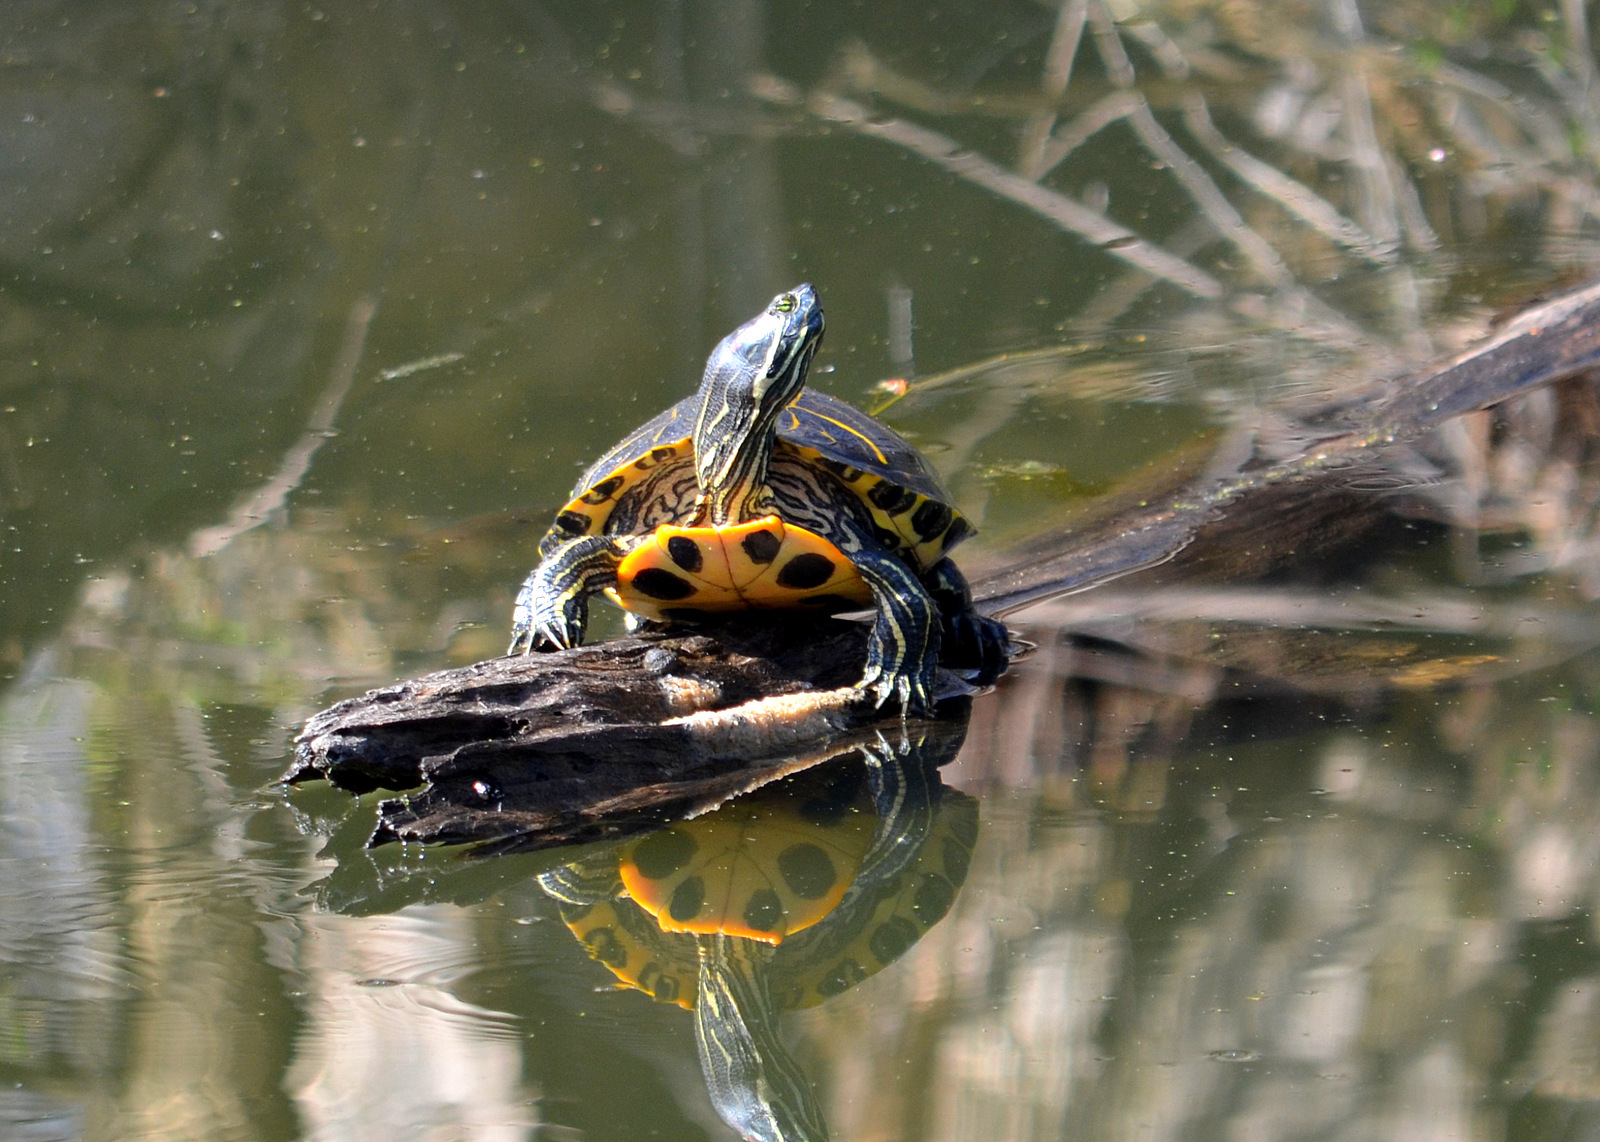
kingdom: Animalia
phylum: Chordata
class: Testudines
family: Emydidae
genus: Trachemys
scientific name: Trachemys scripta
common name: Slider
